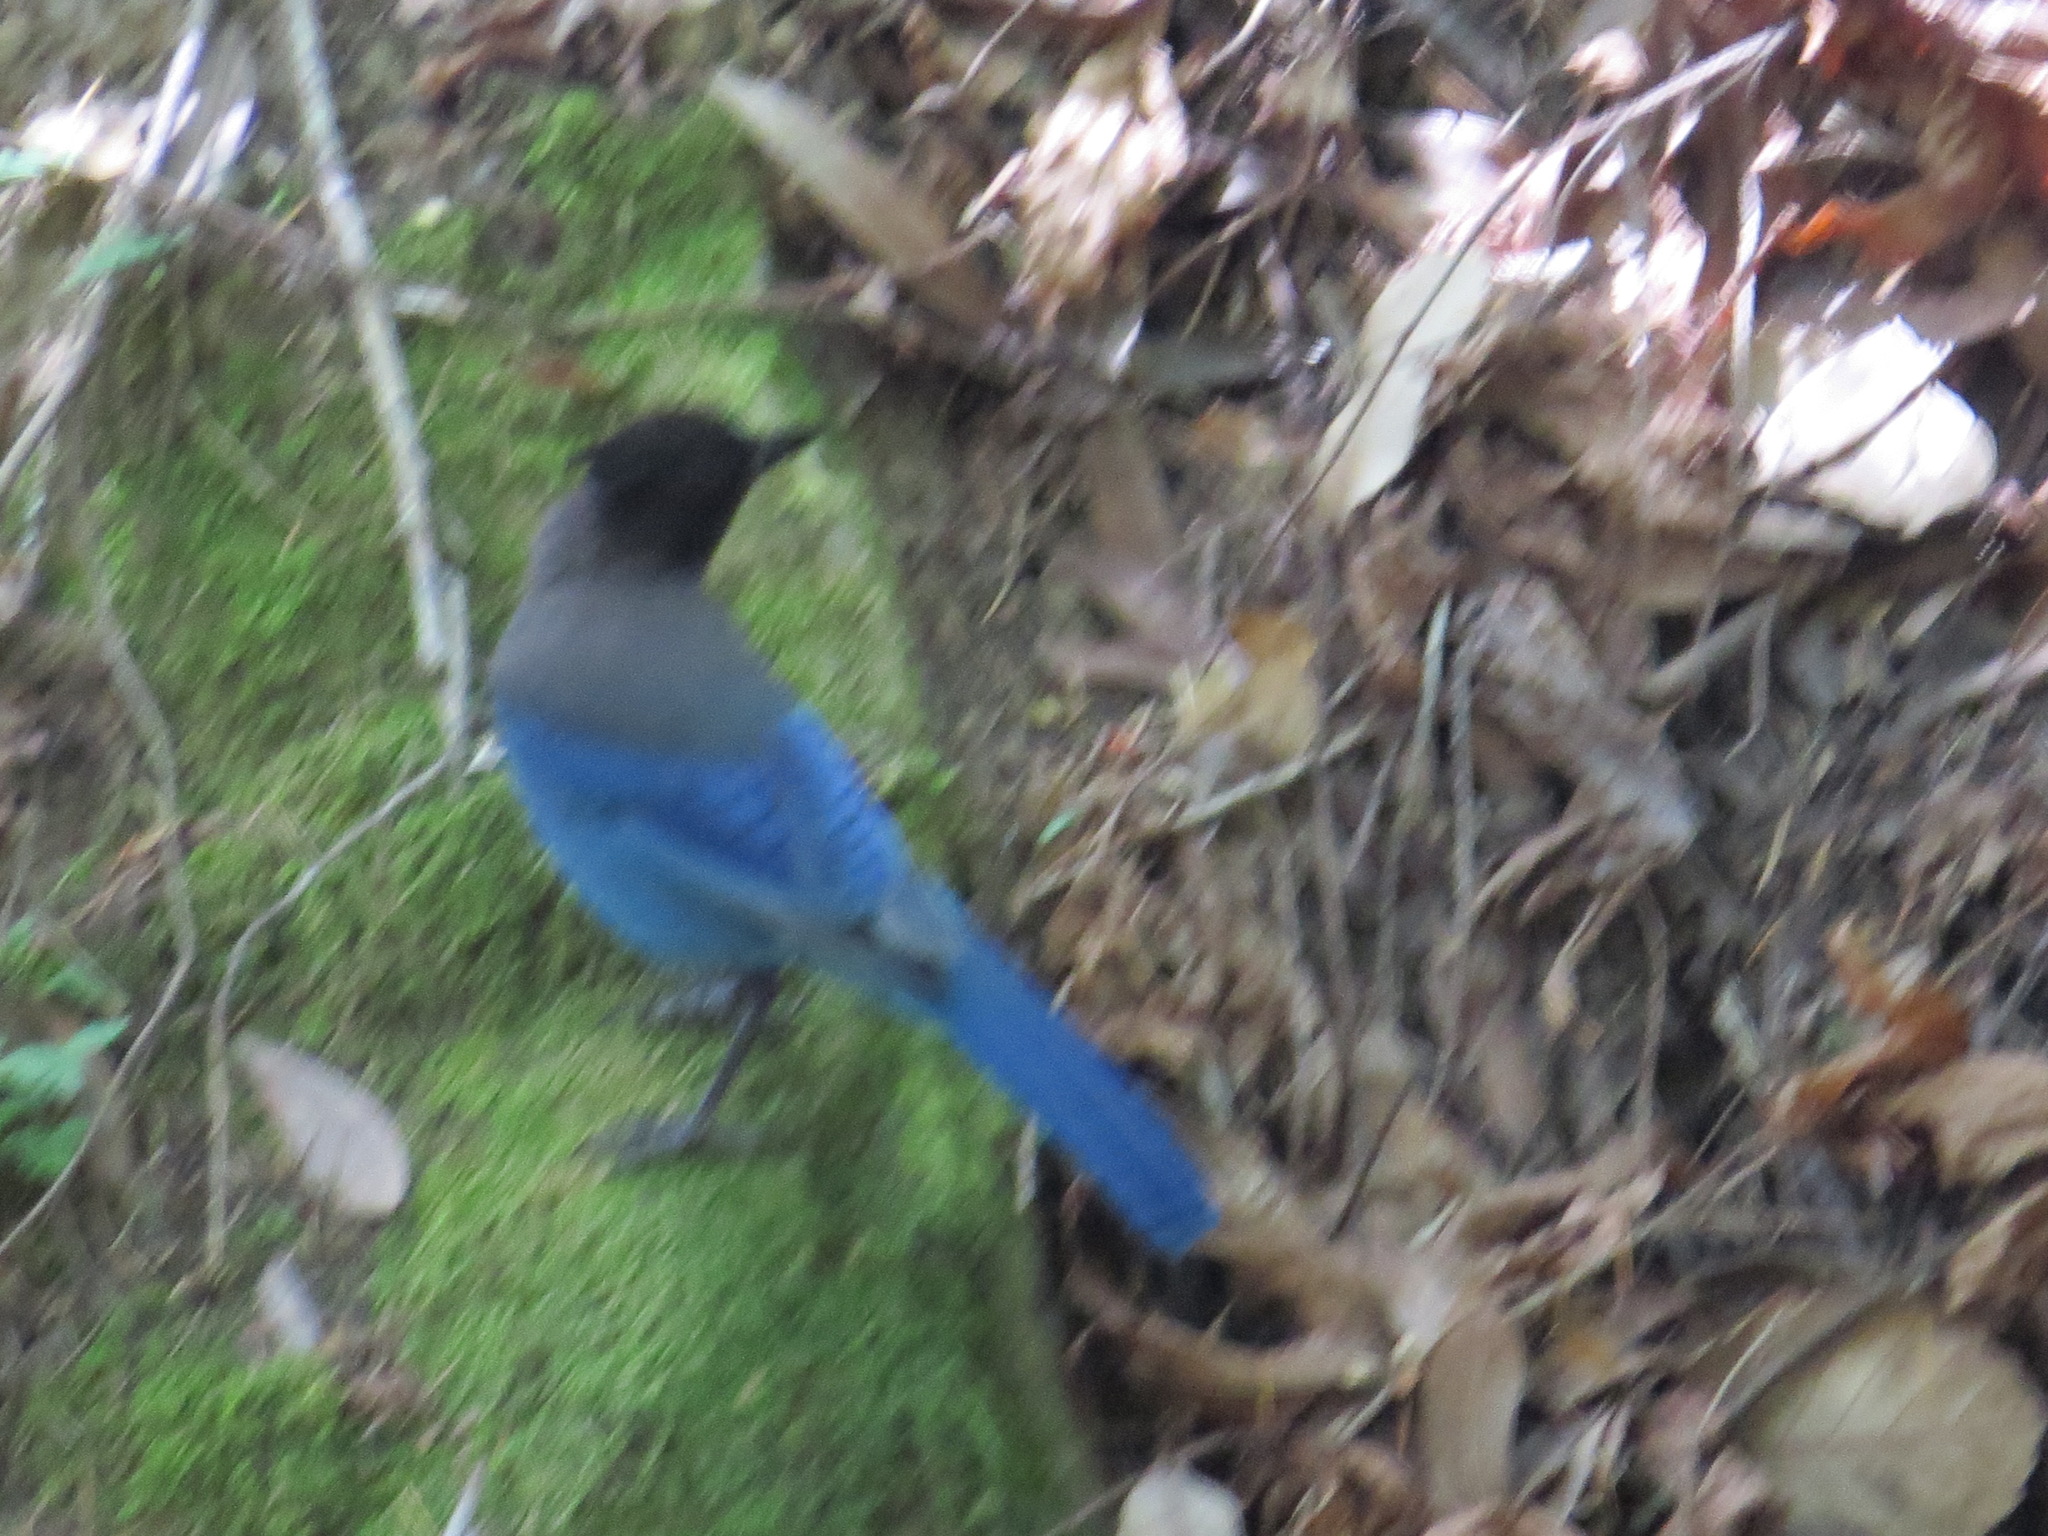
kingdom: Animalia
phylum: Chordata
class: Aves
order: Passeriformes
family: Corvidae
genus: Cyanocitta
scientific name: Cyanocitta stelleri
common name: Steller's jay
